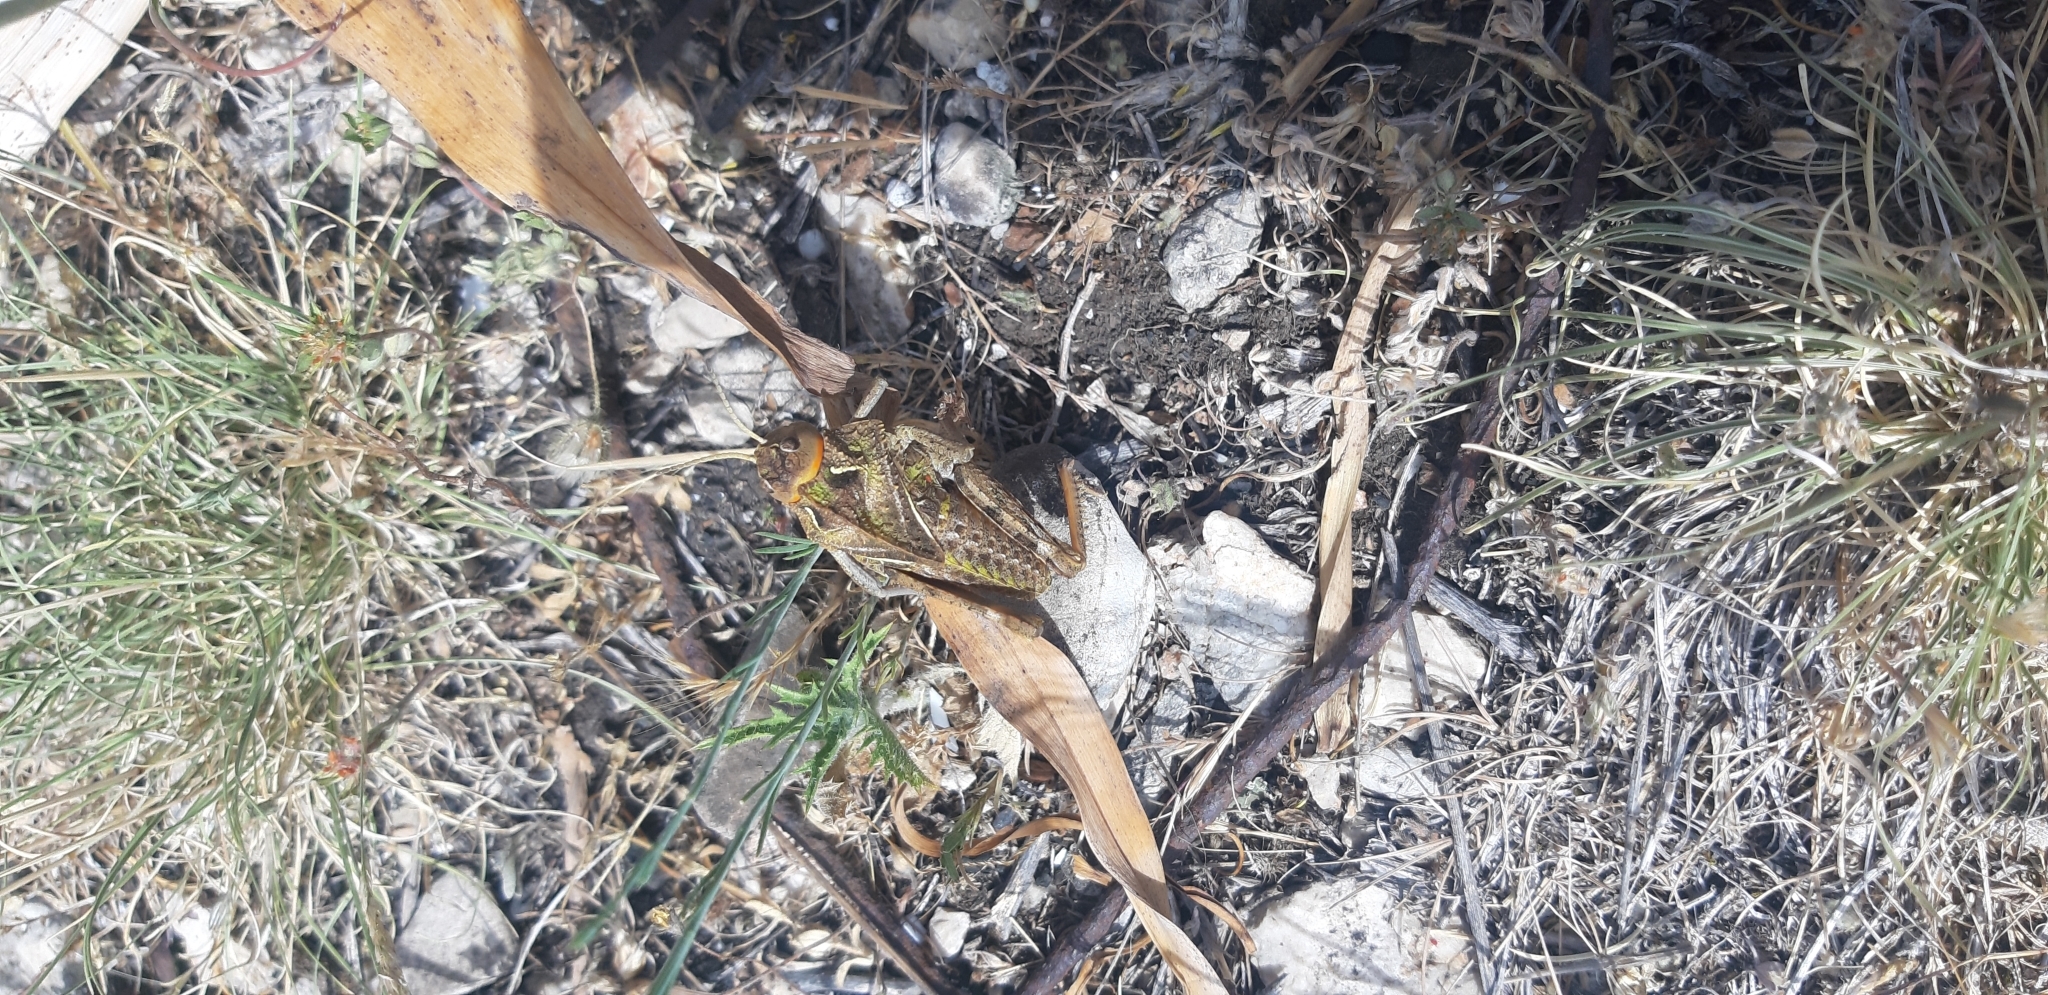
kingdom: Animalia
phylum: Arthropoda
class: Insecta
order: Orthoptera
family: Pamphagidae
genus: Prionotropis
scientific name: Prionotropis appula
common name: Apulian stone grasshopper
